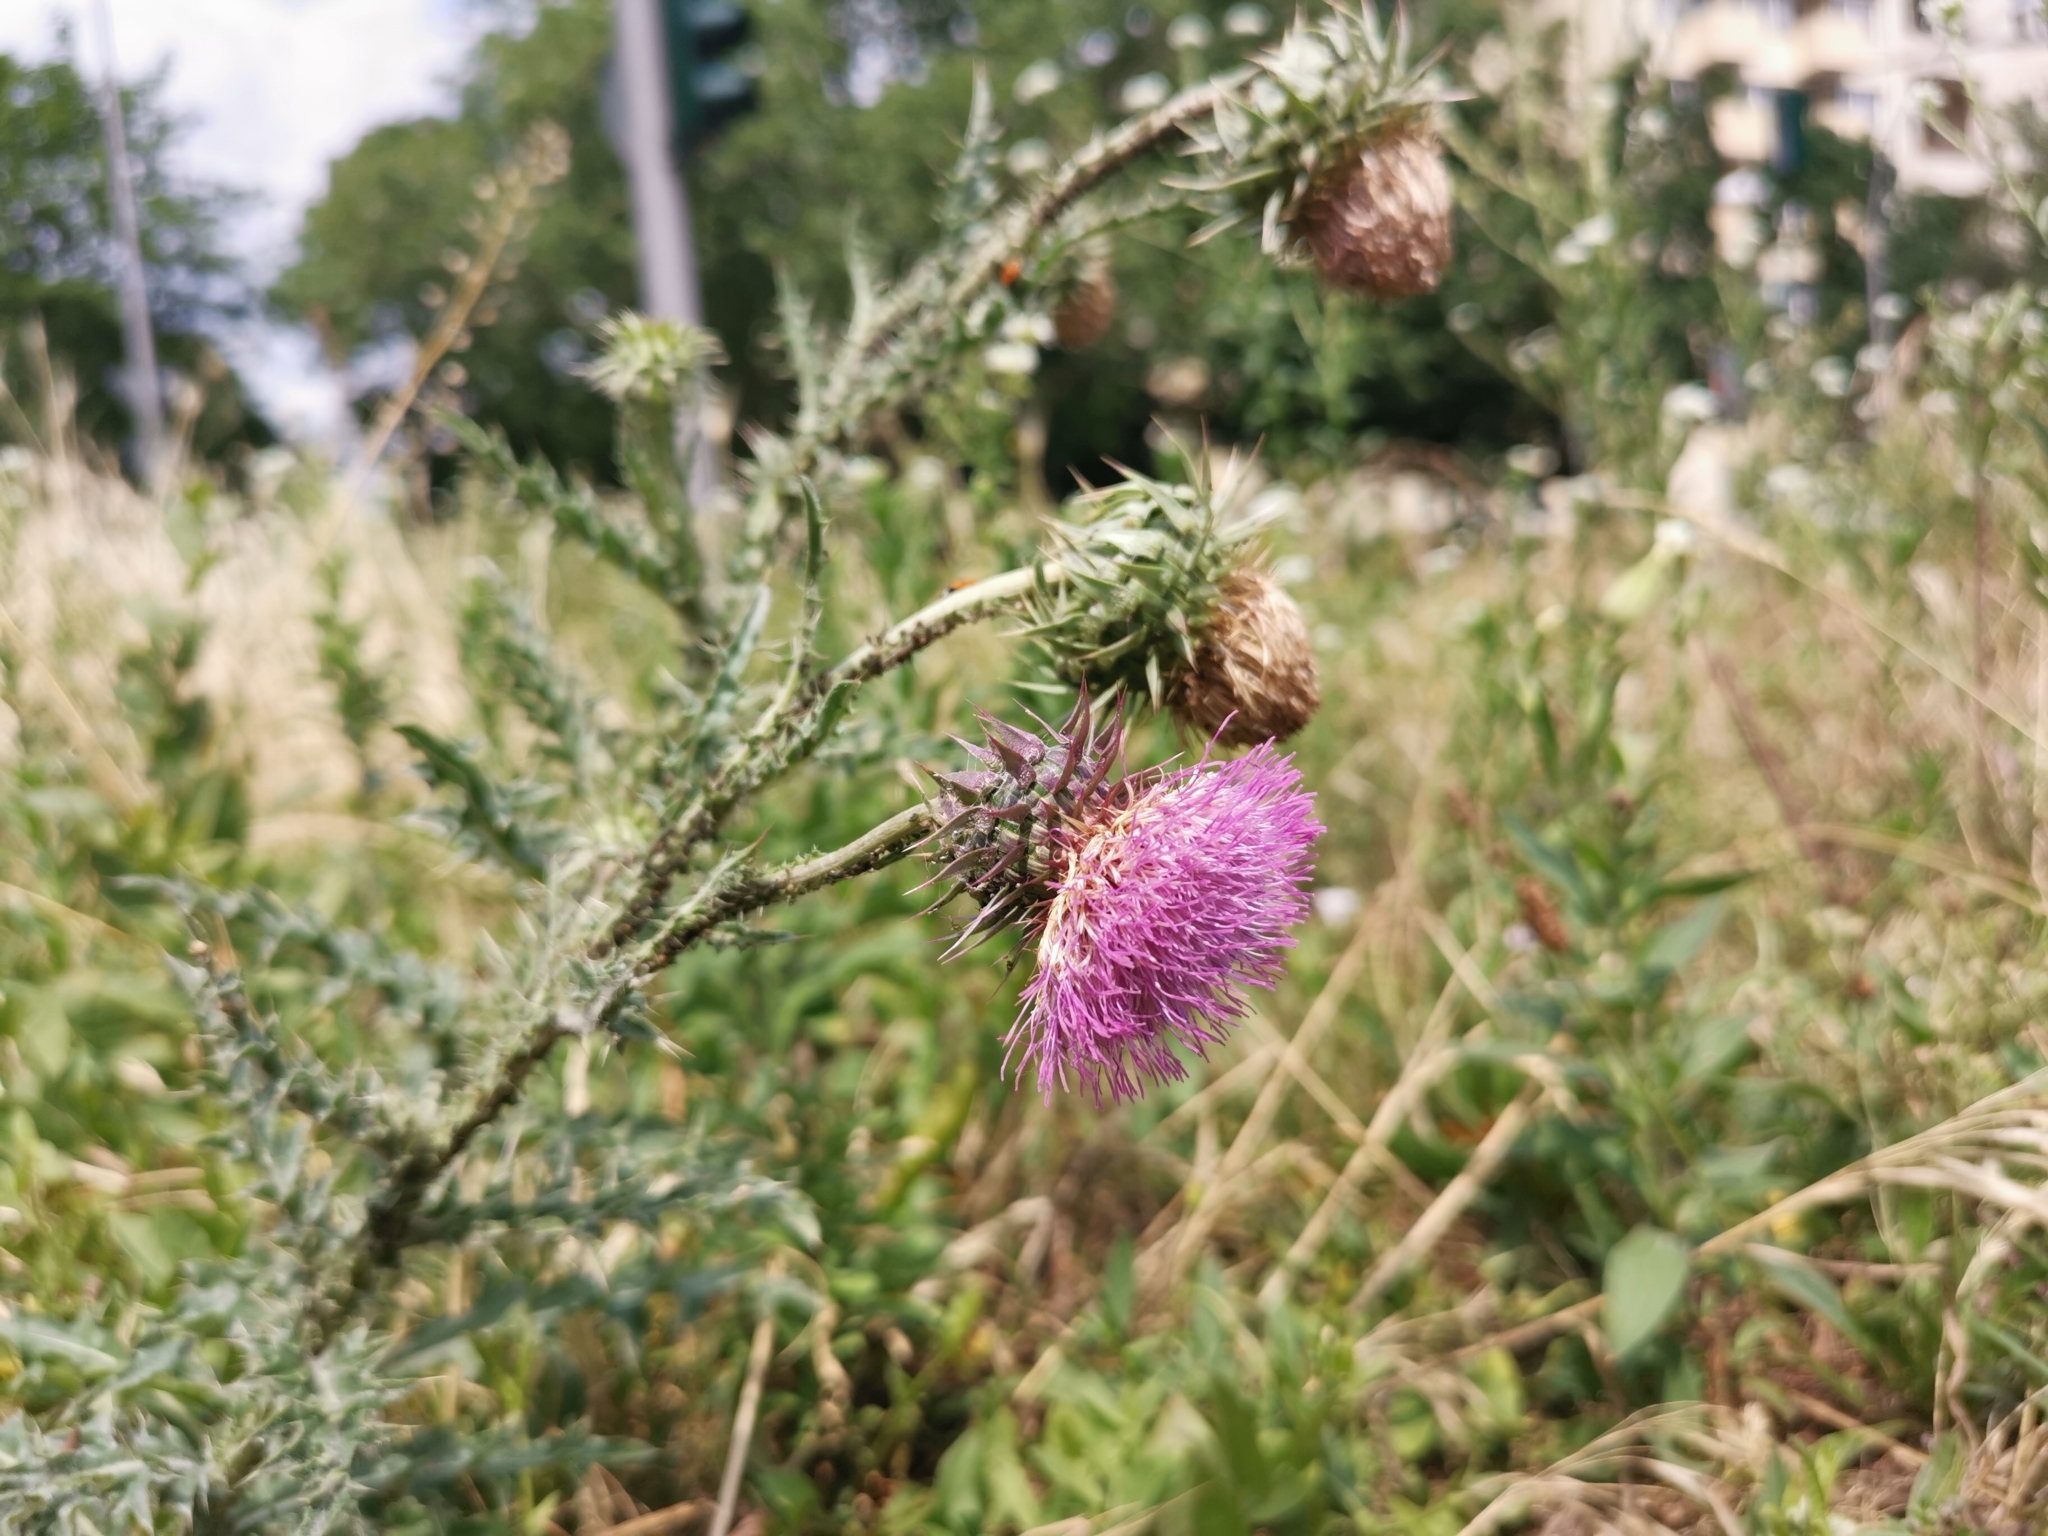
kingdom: Plantae
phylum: Tracheophyta
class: Magnoliopsida
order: Asterales
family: Asteraceae
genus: Carduus
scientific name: Carduus nutans
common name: Musk thistle
